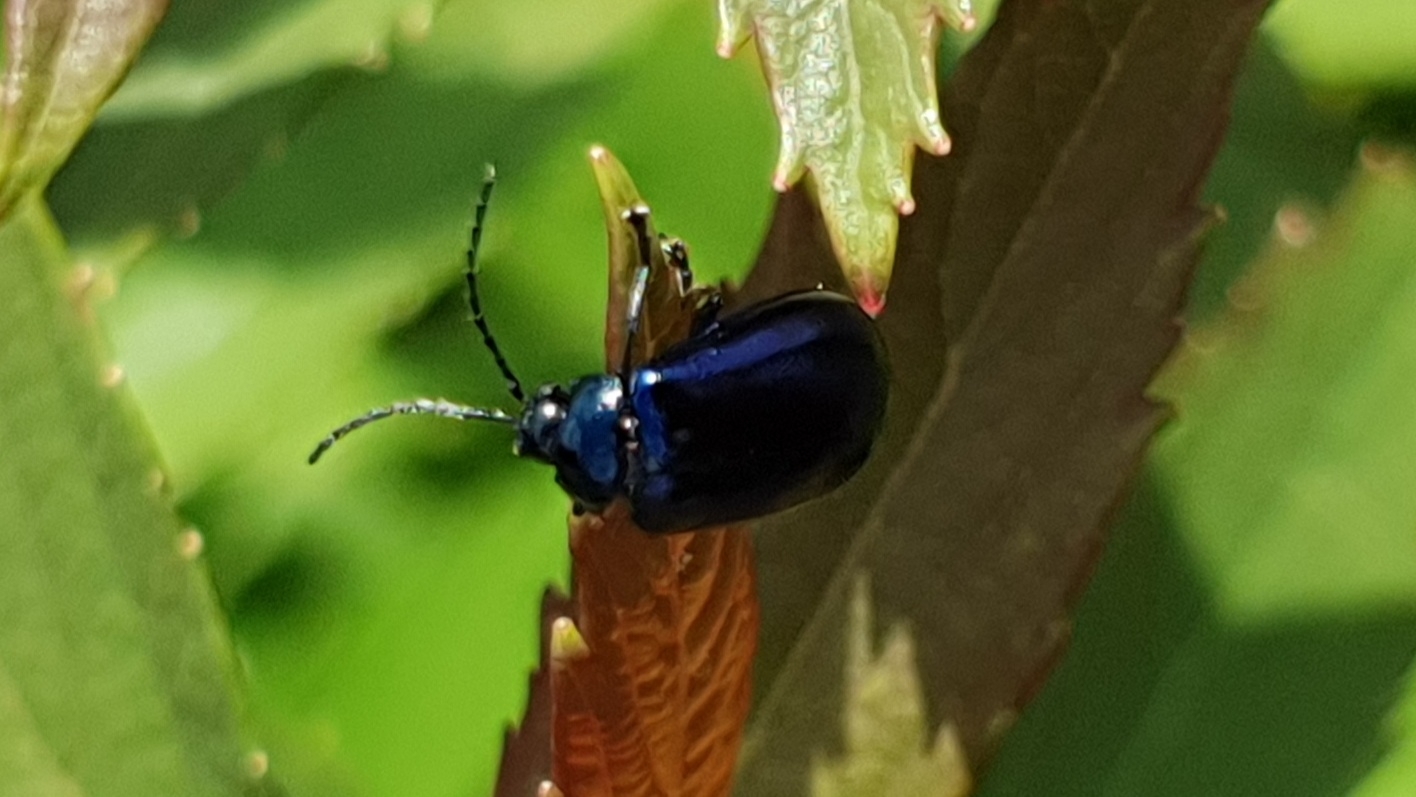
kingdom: Animalia
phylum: Arthropoda
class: Insecta
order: Coleoptera
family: Chrysomelidae
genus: Agelastica
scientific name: Agelastica alni
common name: Alder leaf beetle
